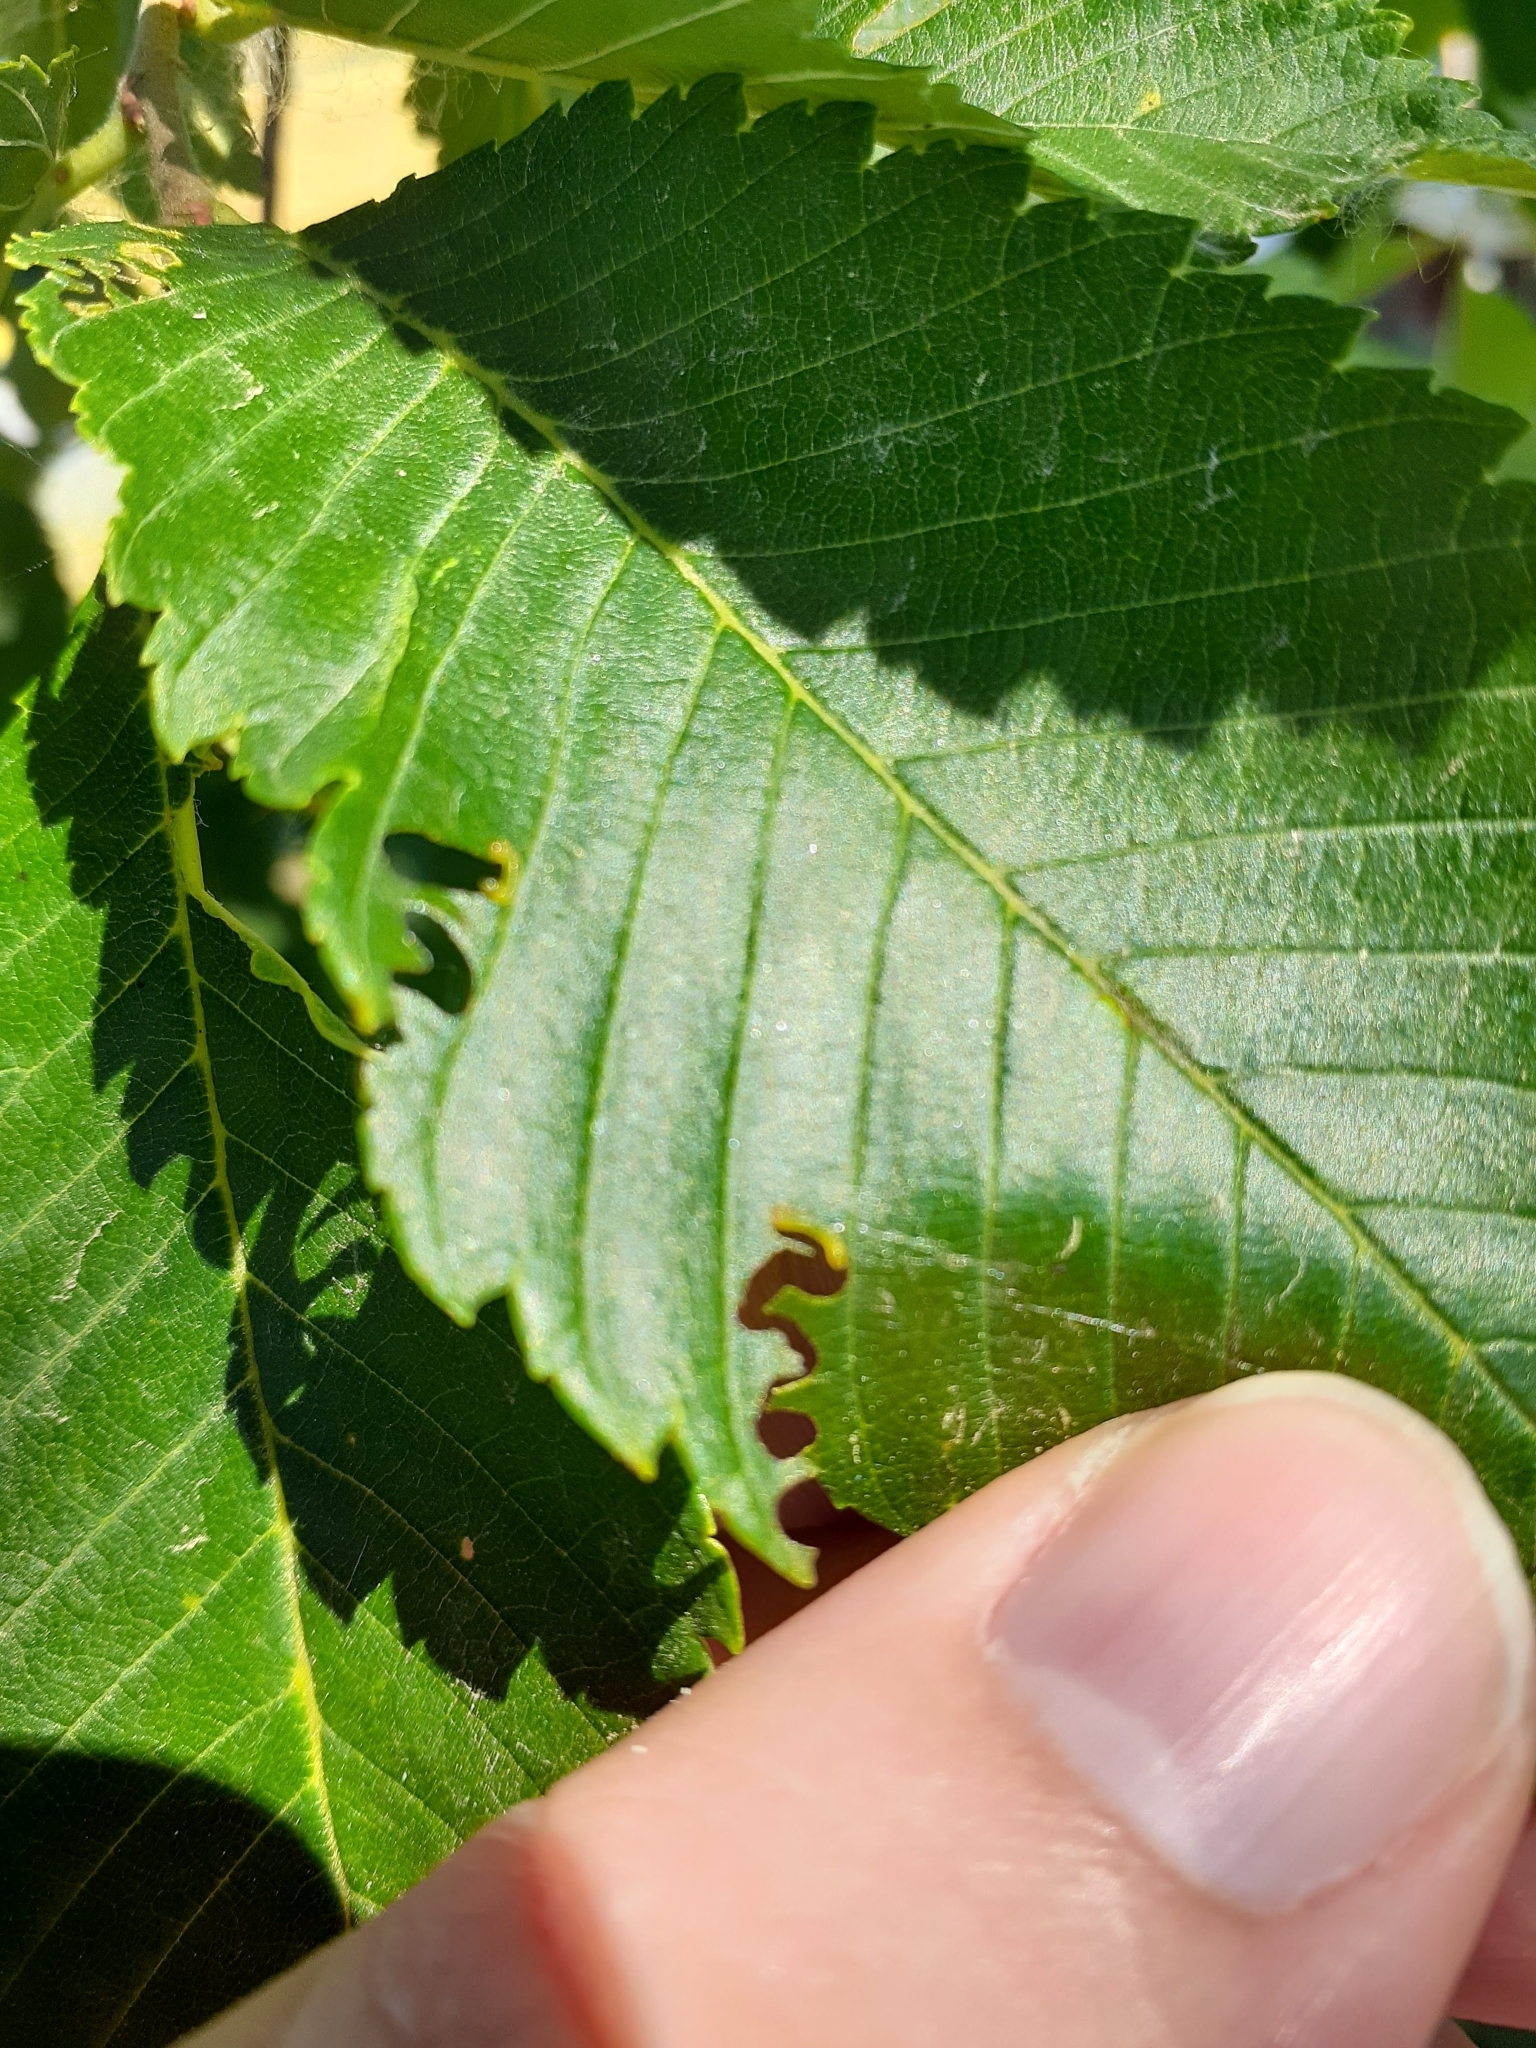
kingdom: Animalia
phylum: Arthropoda
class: Insecta
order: Hymenoptera
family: Argidae
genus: Aproceros
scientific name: Aproceros leucopoda
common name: Zig-zag elm sawfly
